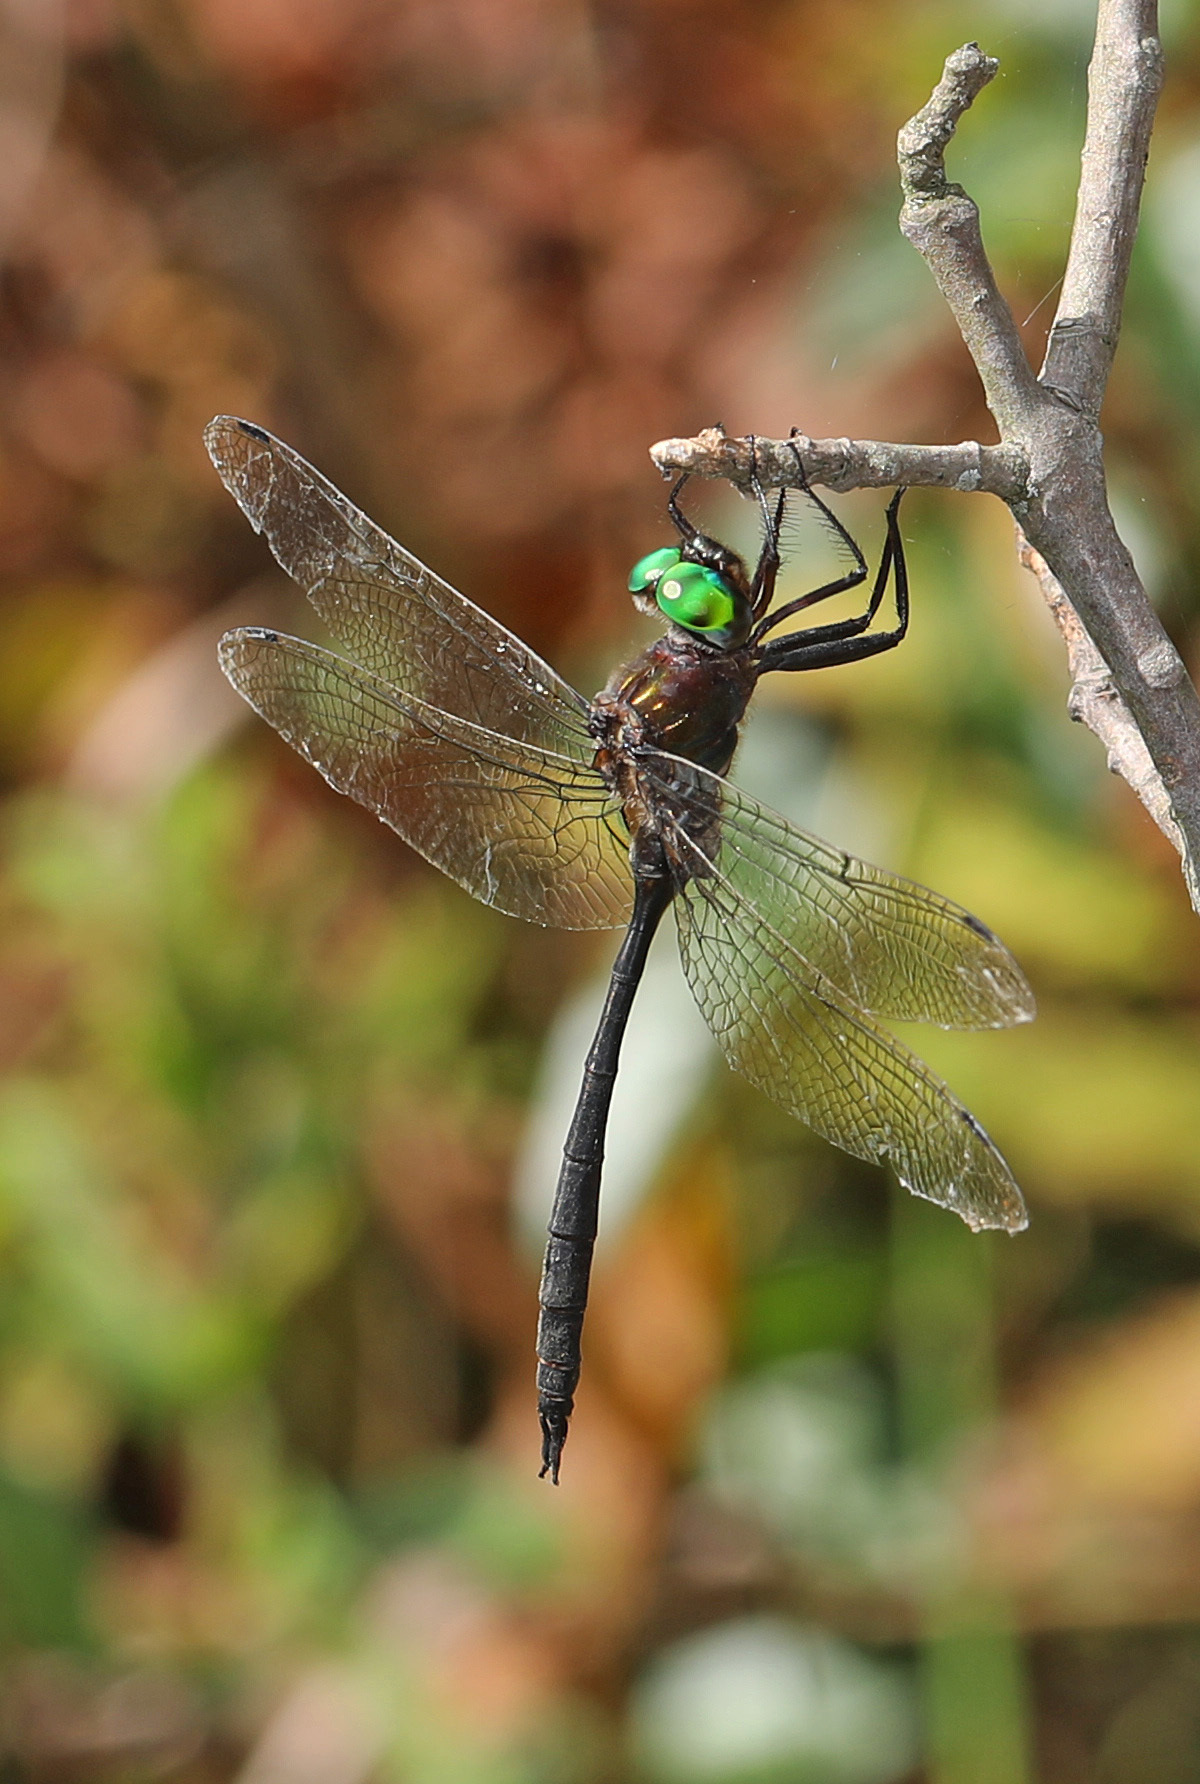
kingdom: Animalia
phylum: Arthropoda
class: Insecta
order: Odonata
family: Corduliidae
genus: Somatochlora
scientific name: Somatochlora filosa
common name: Fine-lined emerald
